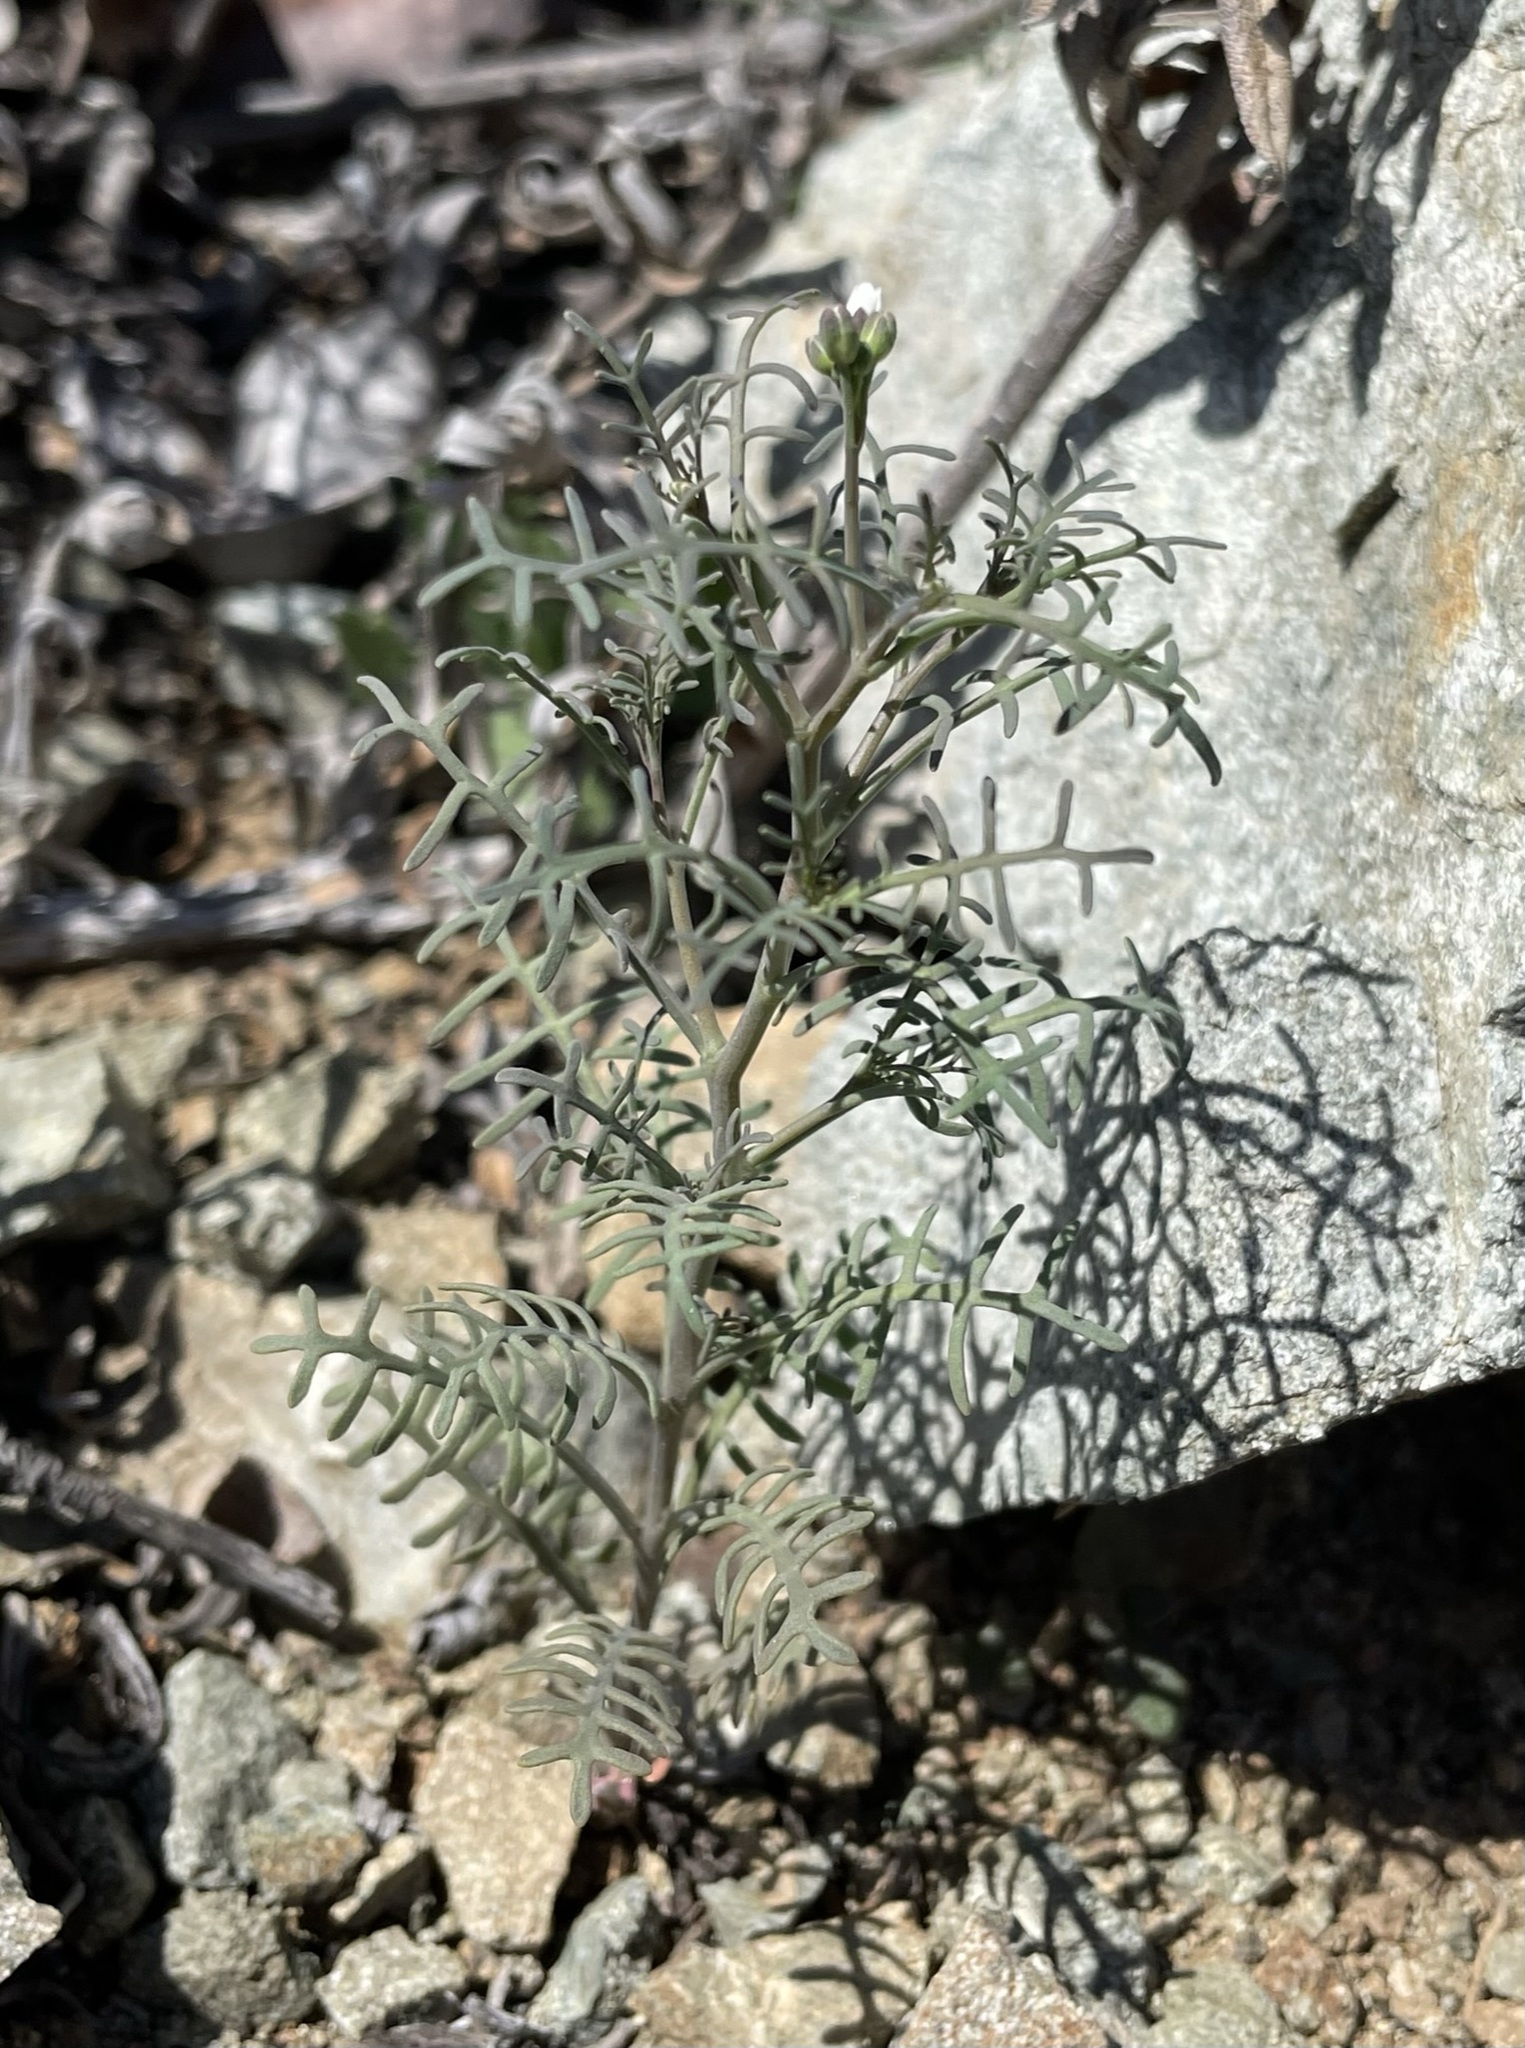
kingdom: Plantae
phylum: Tracheophyta
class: Magnoliopsida
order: Brassicales
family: Brassicaceae
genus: Sibara
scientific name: Sibara filifolia
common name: Santa cruz island-rockcress
